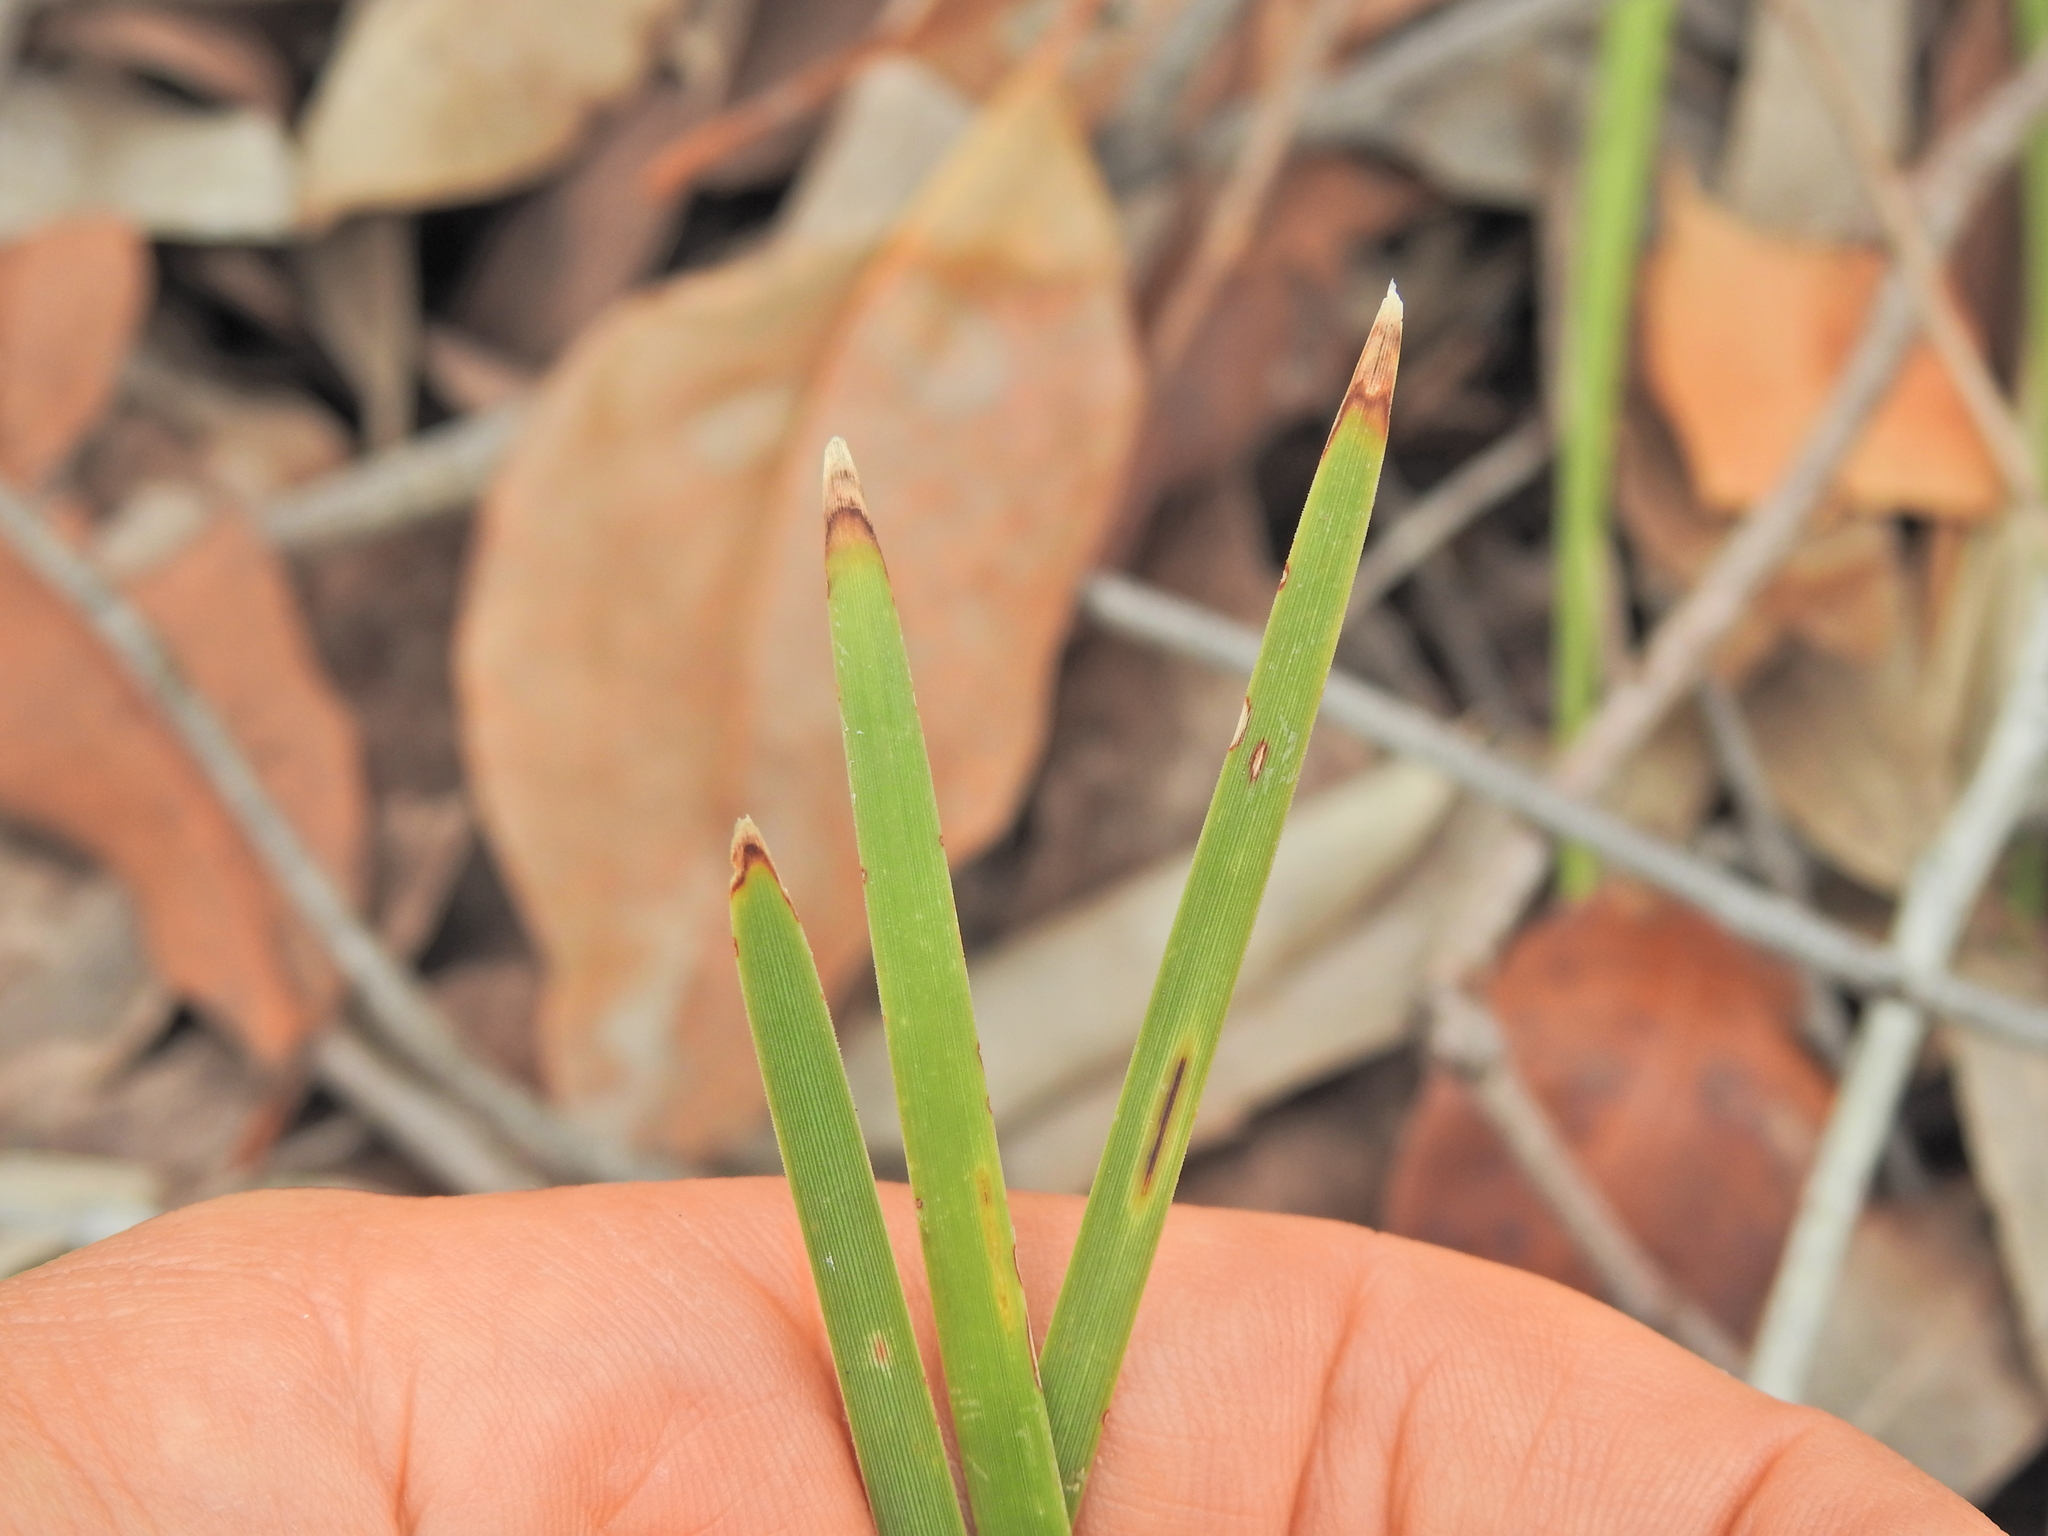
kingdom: Plantae
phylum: Tracheophyta
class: Liliopsida
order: Asparagales
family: Asparagaceae
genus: Lomandra
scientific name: Lomandra multiflora
